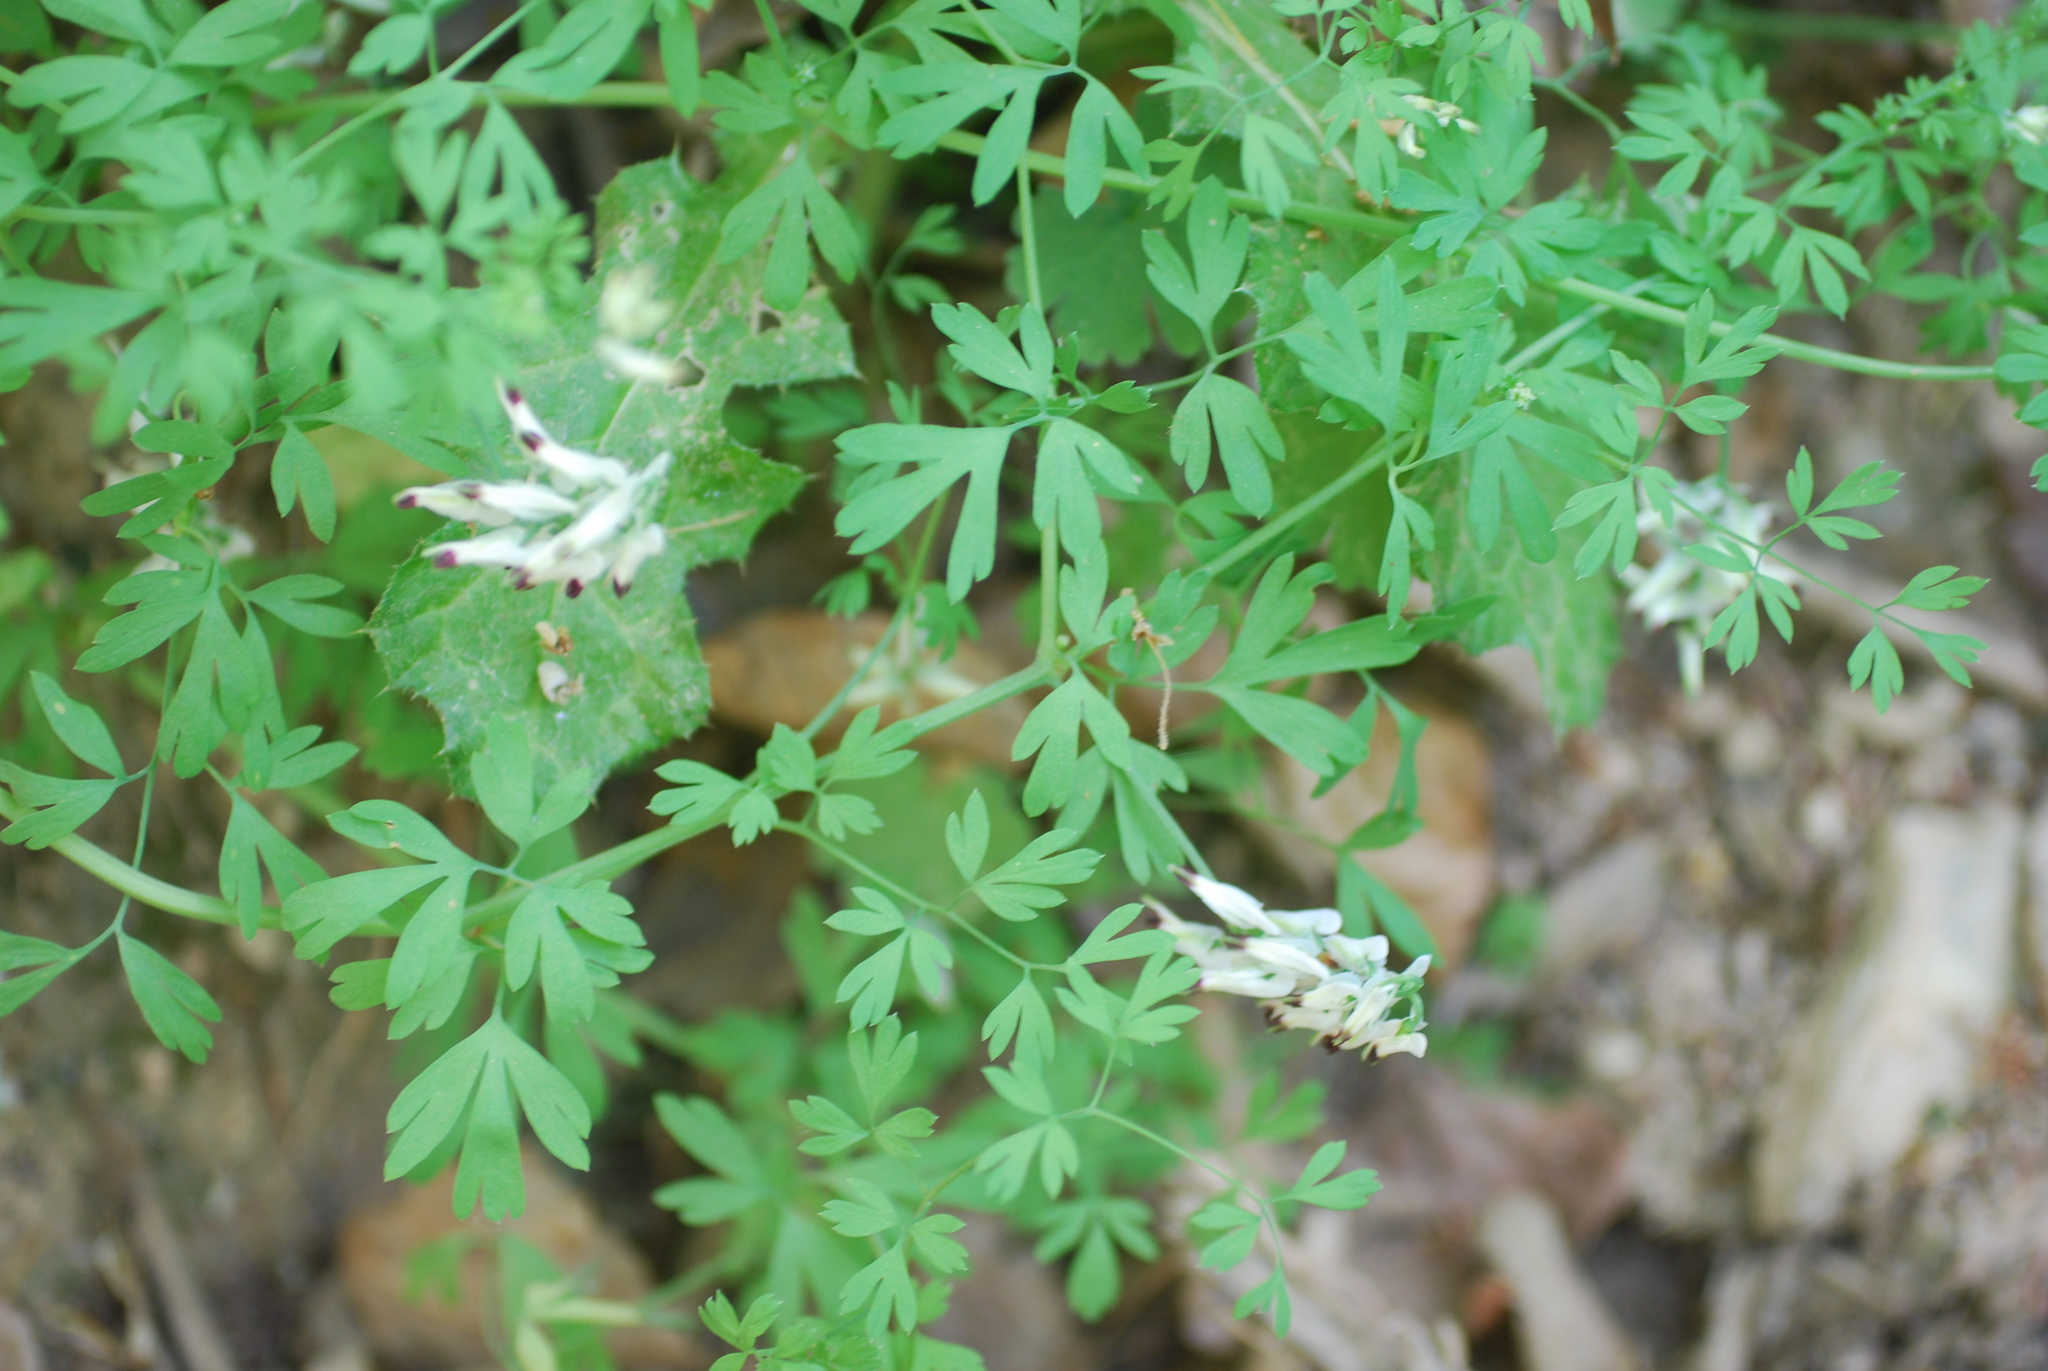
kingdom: Plantae
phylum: Tracheophyta
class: Magnoliopsida
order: Ranunculales
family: Papaveraceae
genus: Fumaria
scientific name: Fumaria capreolata
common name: White ramping-fumitory
